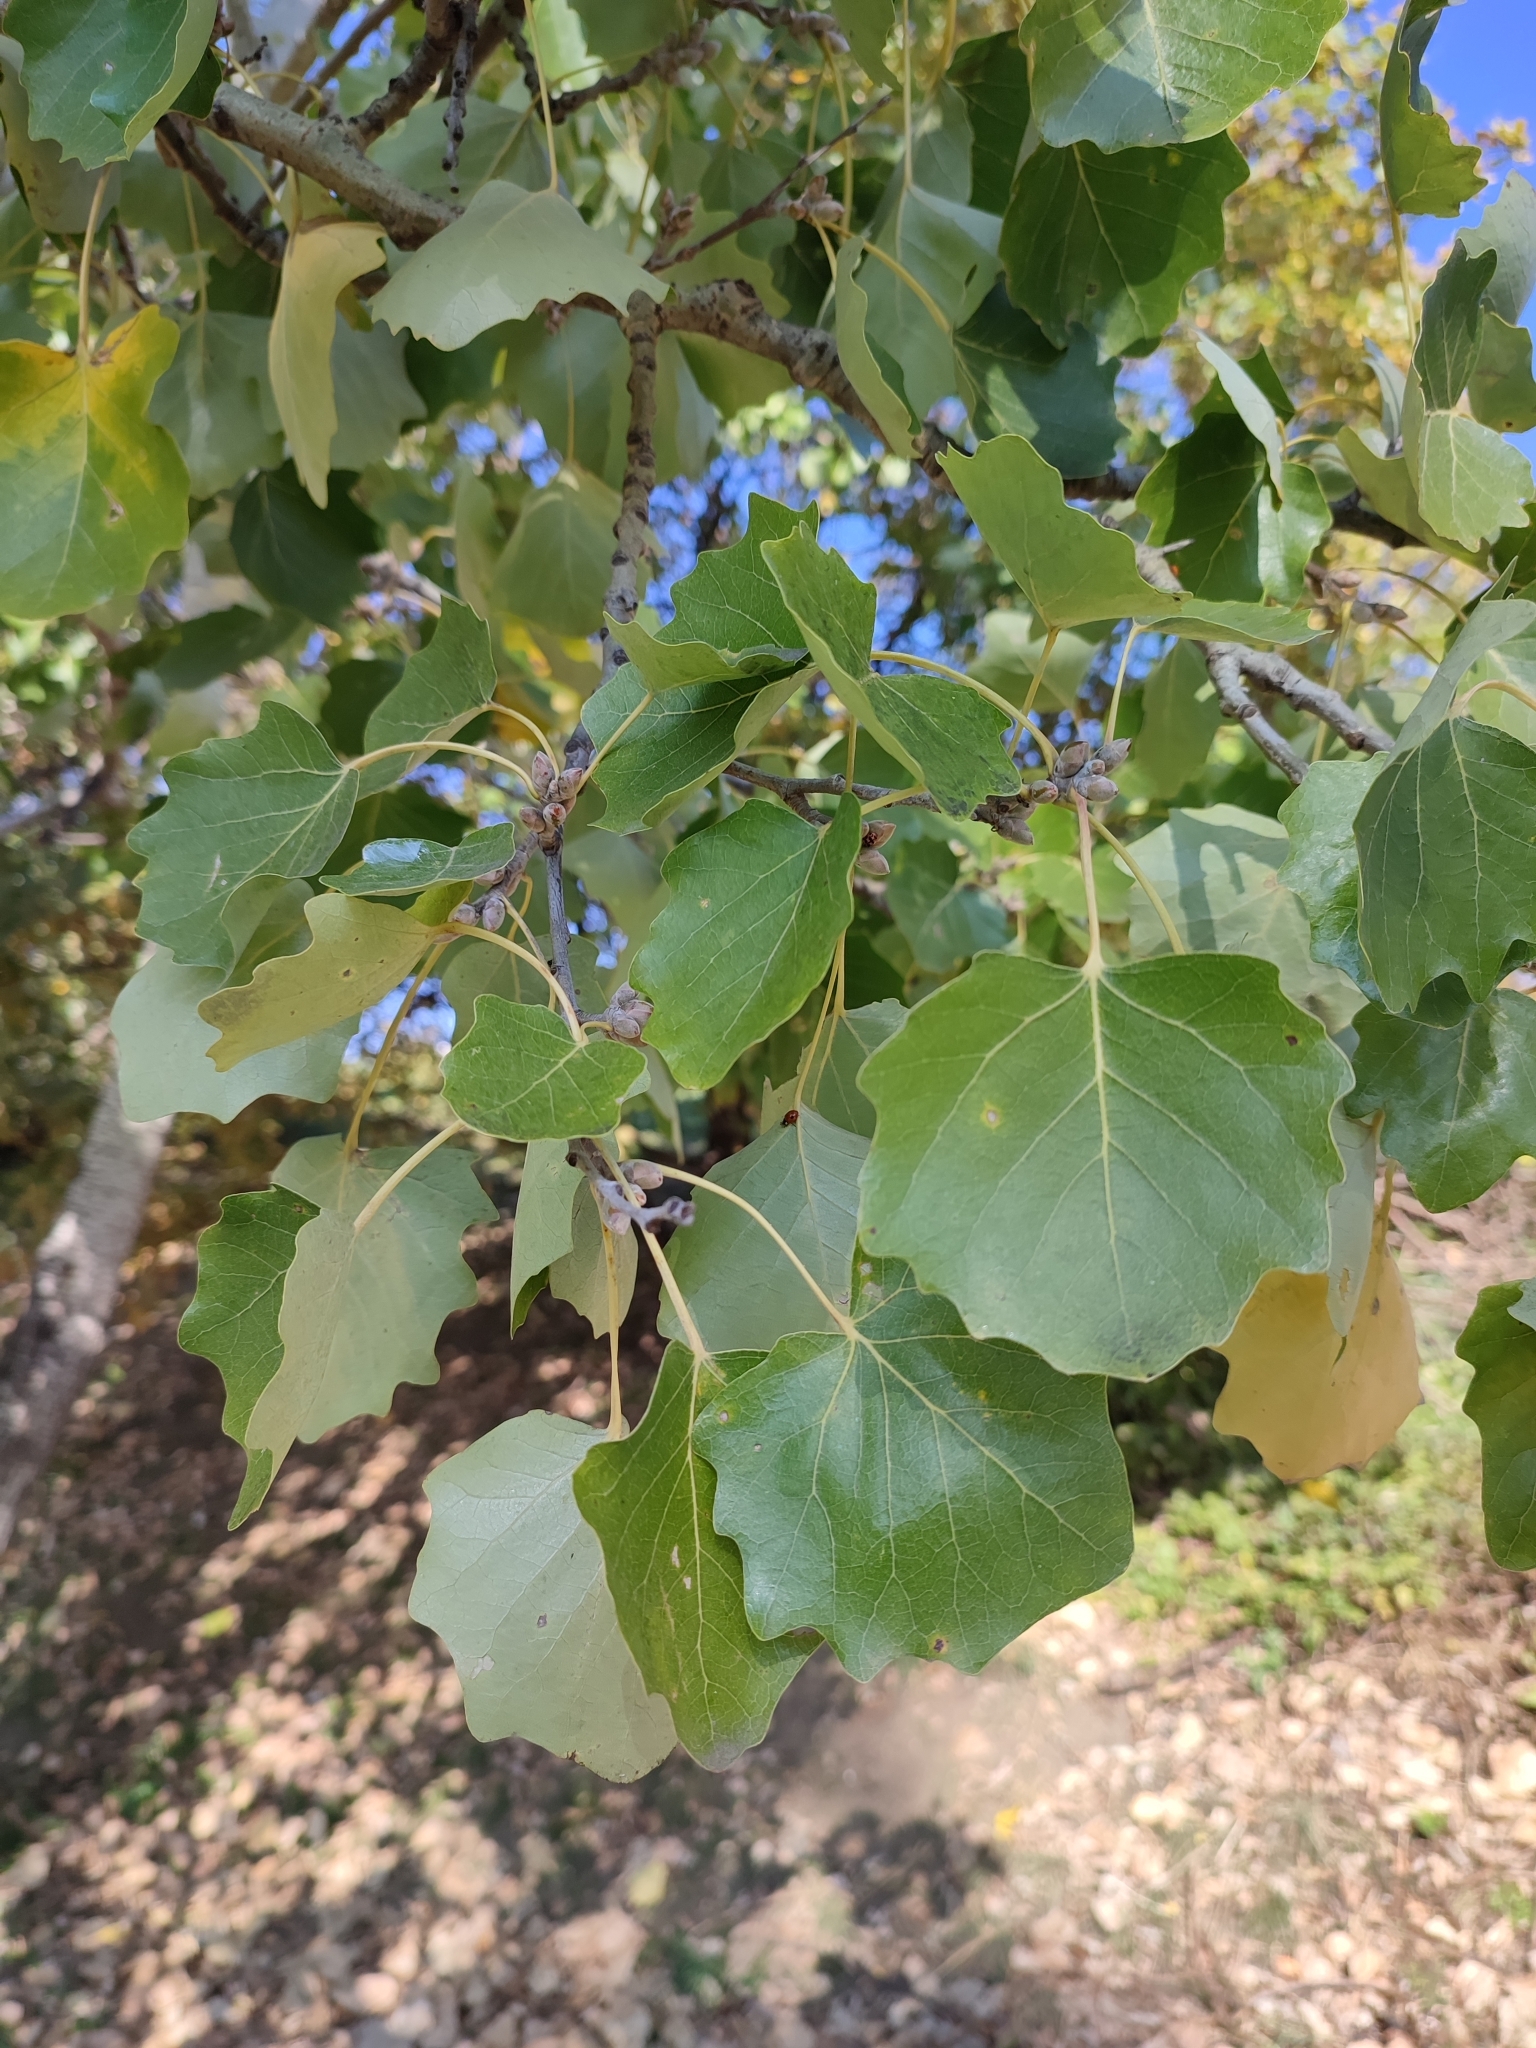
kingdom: Plantae
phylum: Tracheophyta
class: Magnoliopsida
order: Malpighiales
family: Salicaceae
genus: Populus
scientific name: Populus tremula
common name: European aspen
